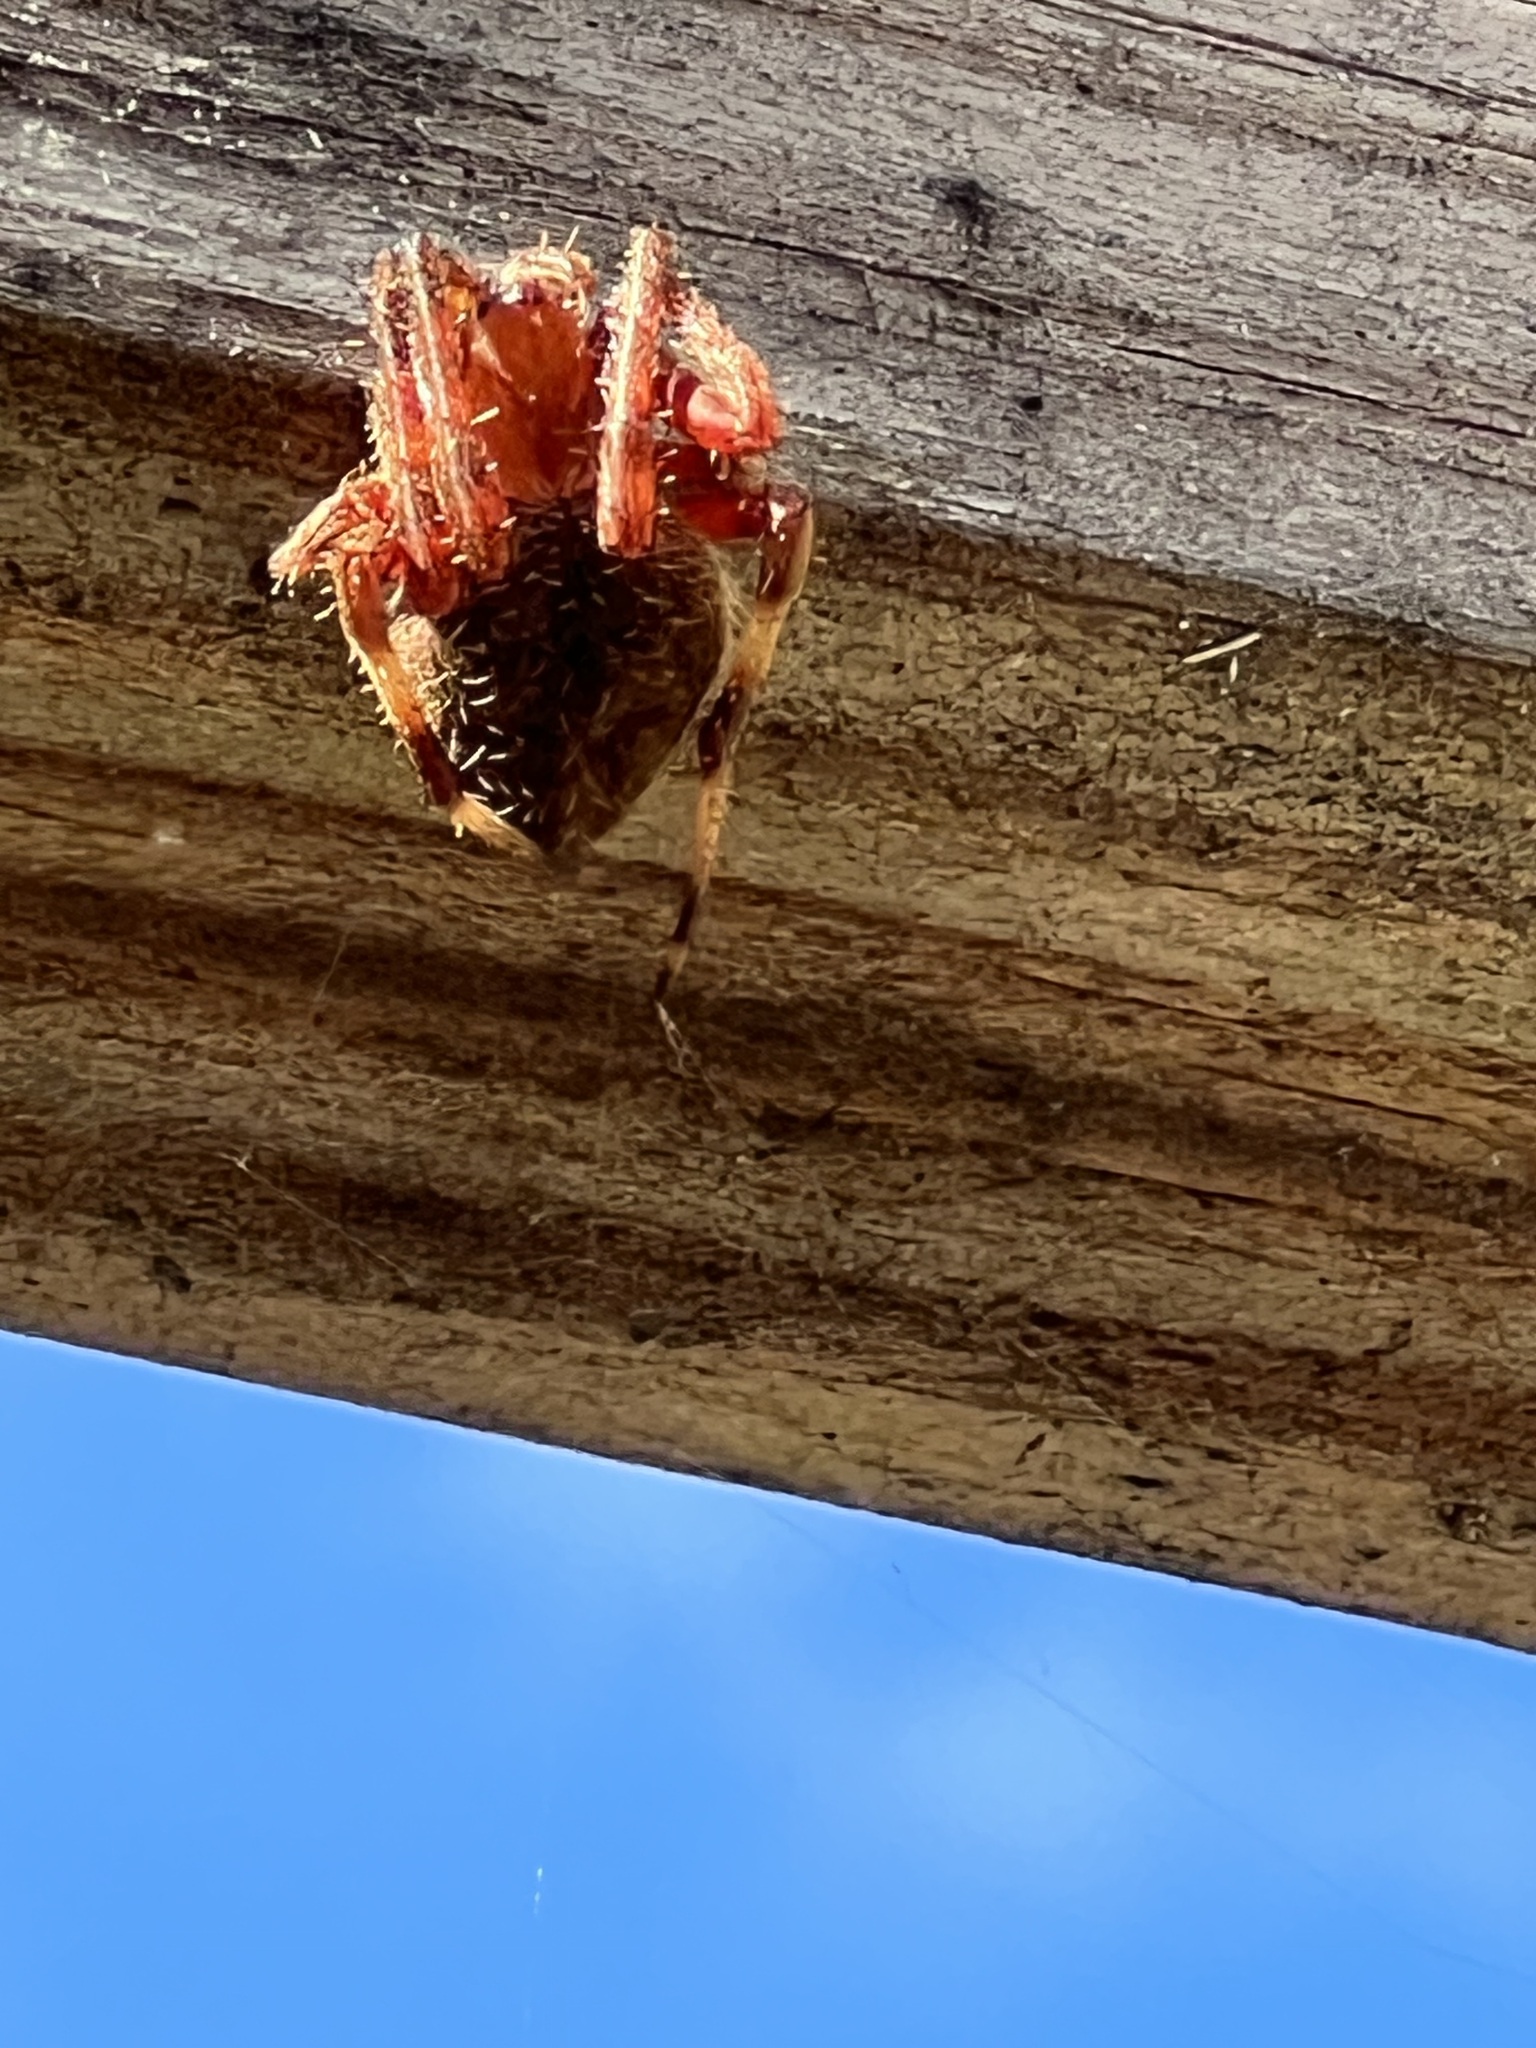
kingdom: Animalia
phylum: Arthropoda
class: Arachnida
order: Araneae
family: Araneidae
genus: Neoscona
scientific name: Neoscona crucifera
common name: Spotted orbweaver
